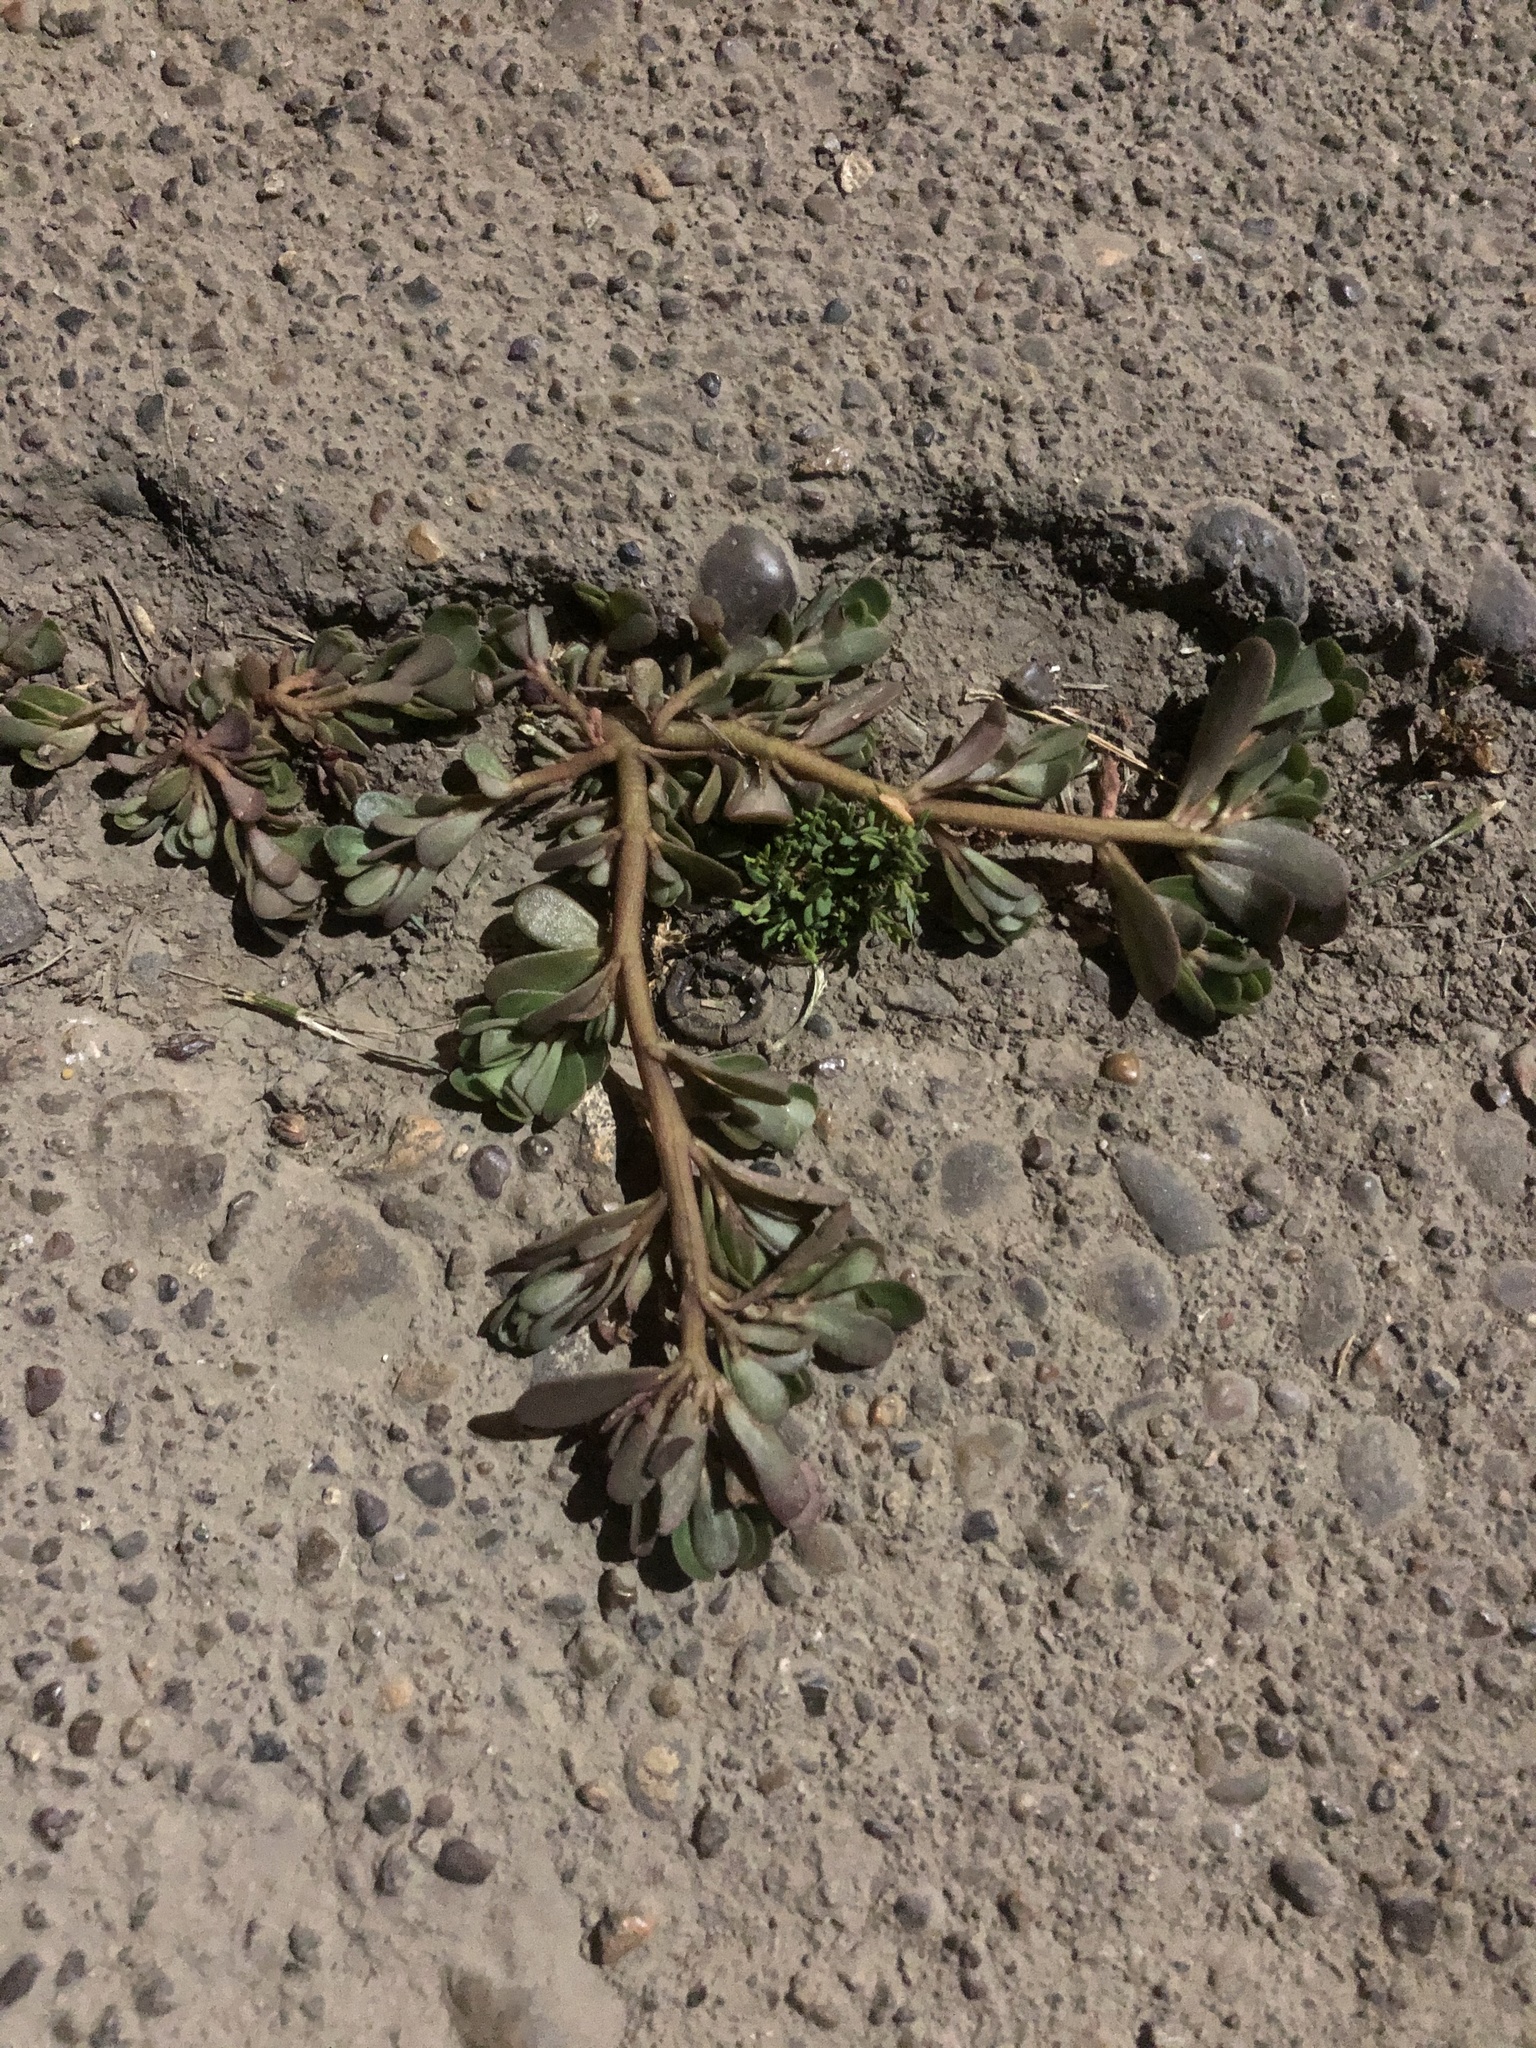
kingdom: Plantae
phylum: Tracheophyta
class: Magnoliopsida
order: Caryophyllales
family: Portulacaceae
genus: Portulaca
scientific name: Portulaca oleracea
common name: Common purslane
